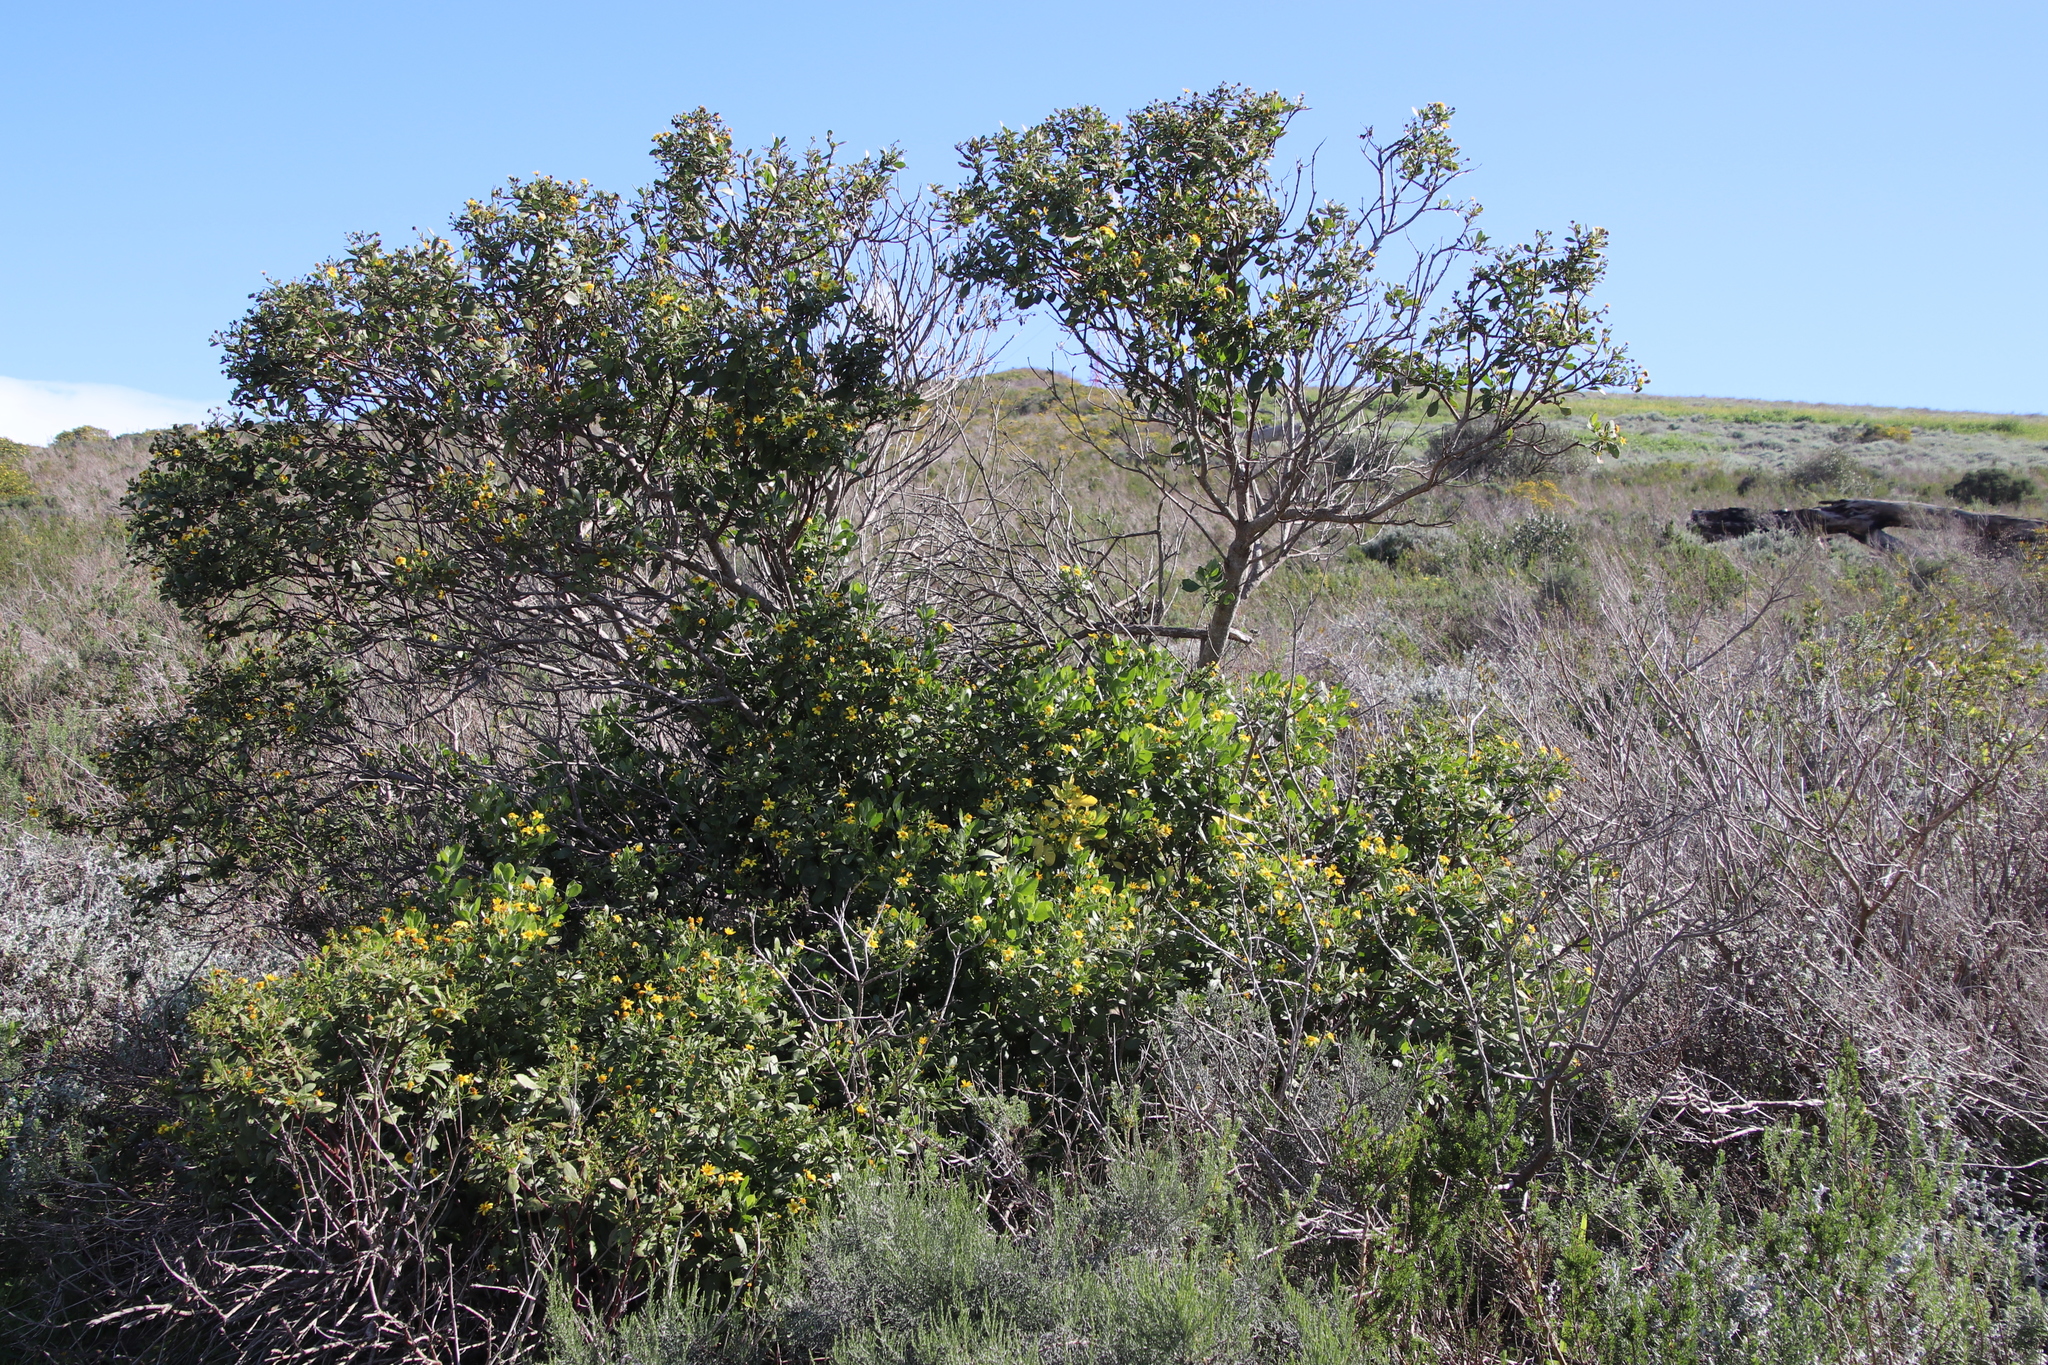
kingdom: Plantae
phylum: Tracheophyta
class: Magnoliopsida
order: Asterales
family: Asteraceae
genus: Osteospermum
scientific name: Osteospermum moniliferum
